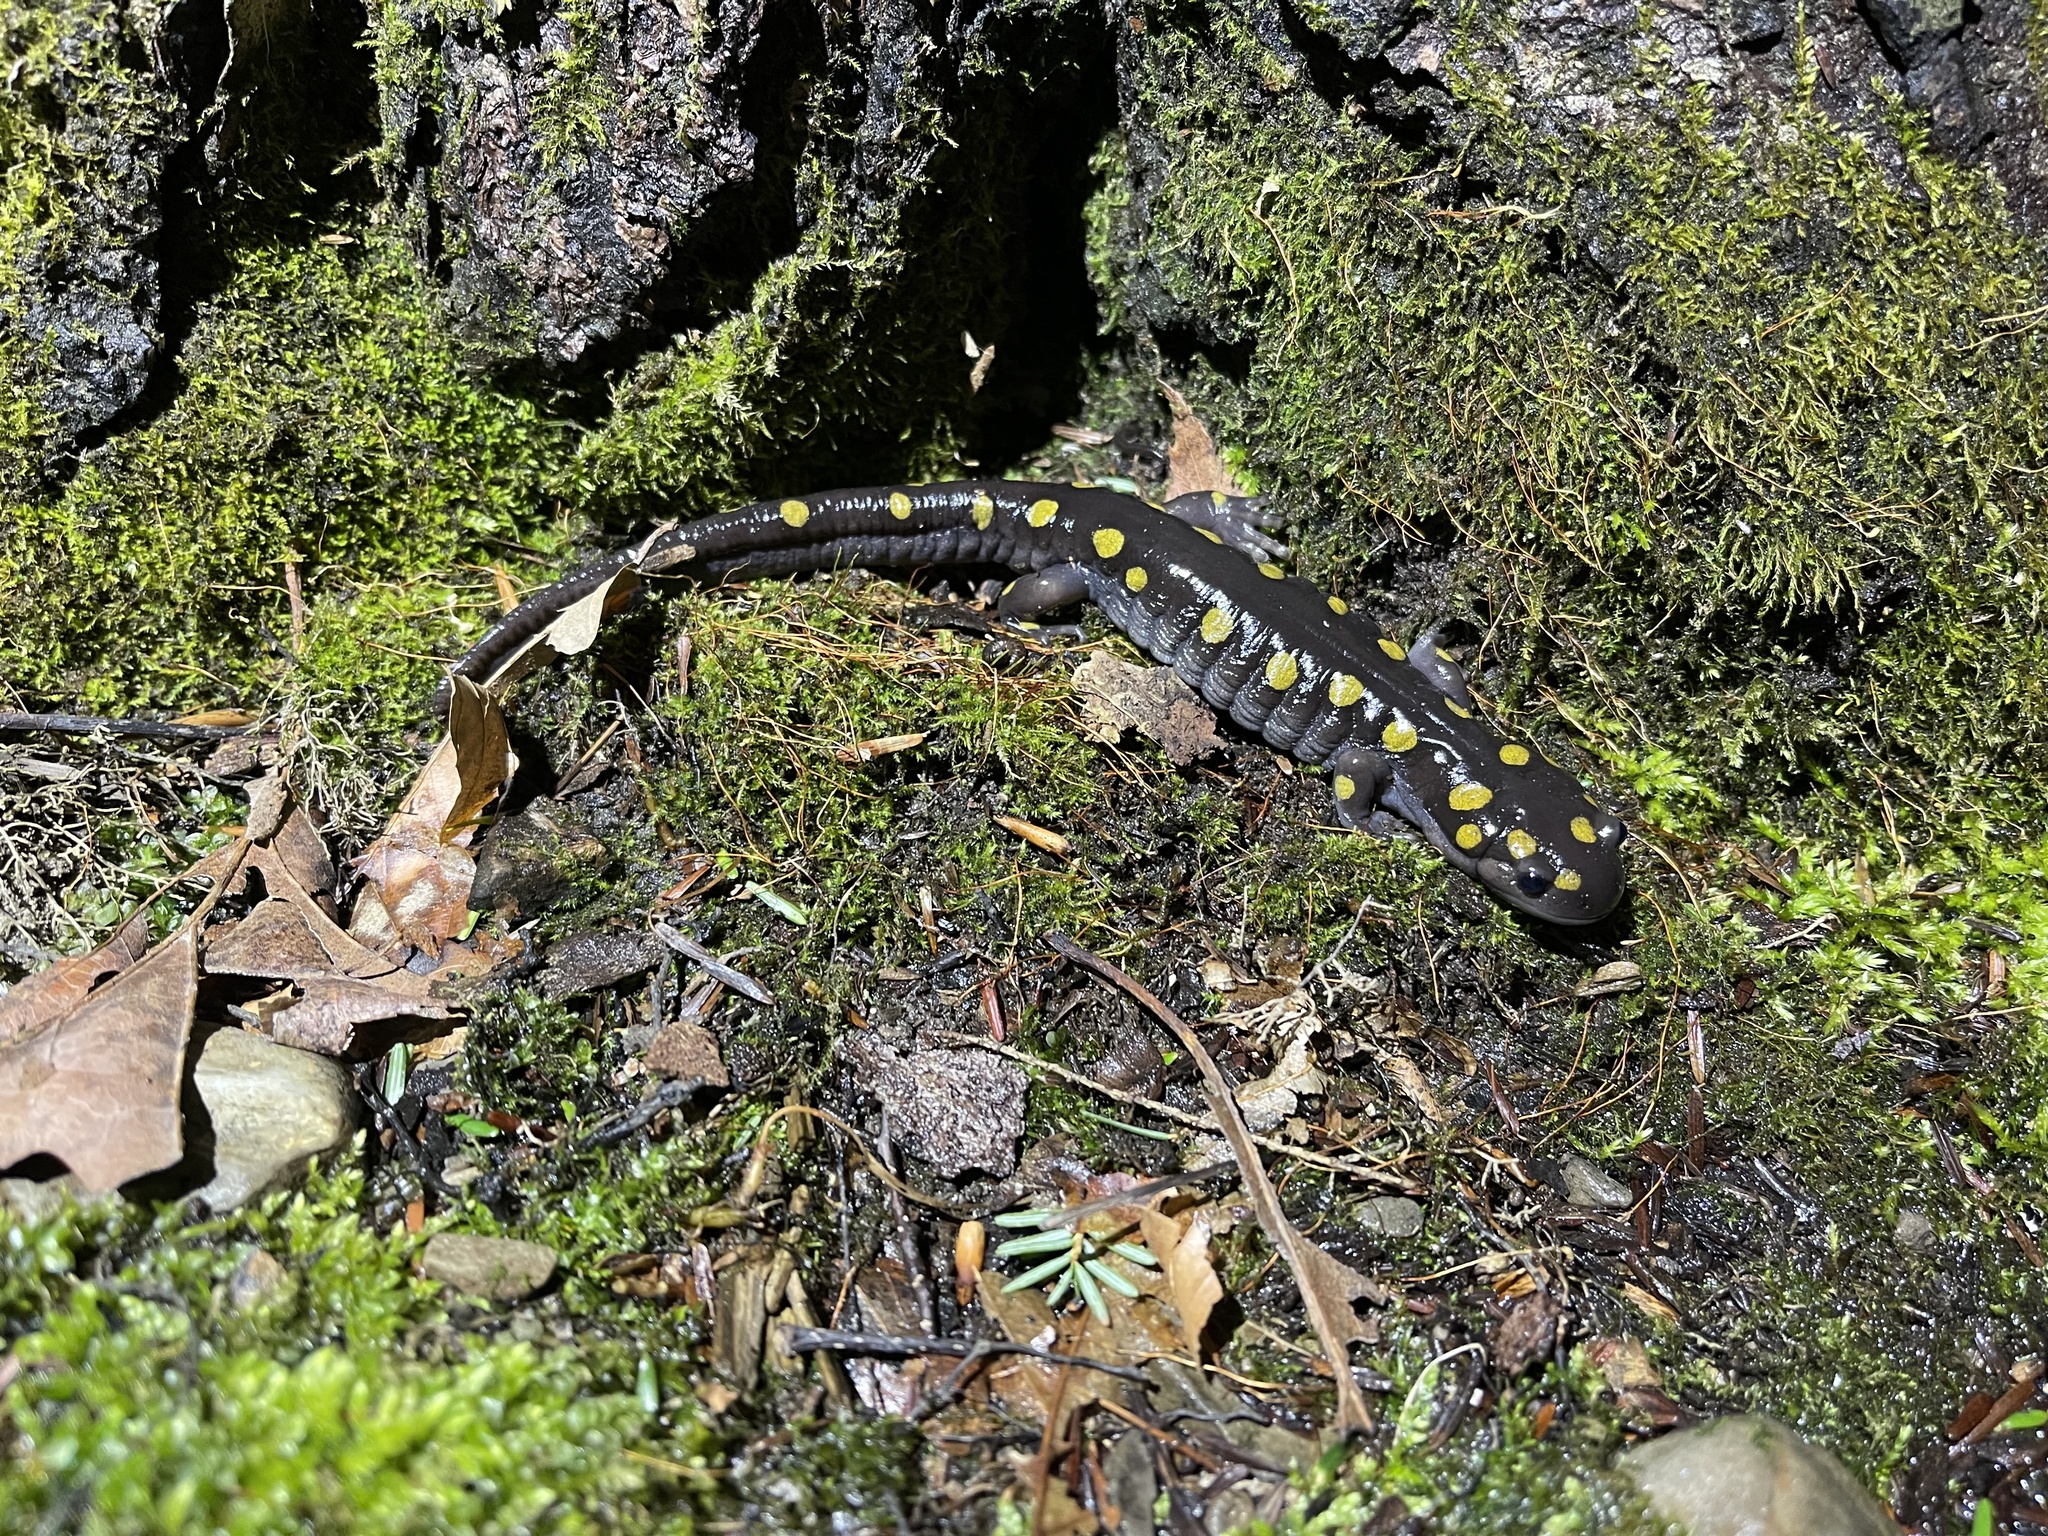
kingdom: Animalia
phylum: Chordata
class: Amphibia
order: Caudata
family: Ambystomatidae
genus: Ambystoma
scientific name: Ambystoma maculatum
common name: Spotted salamander
